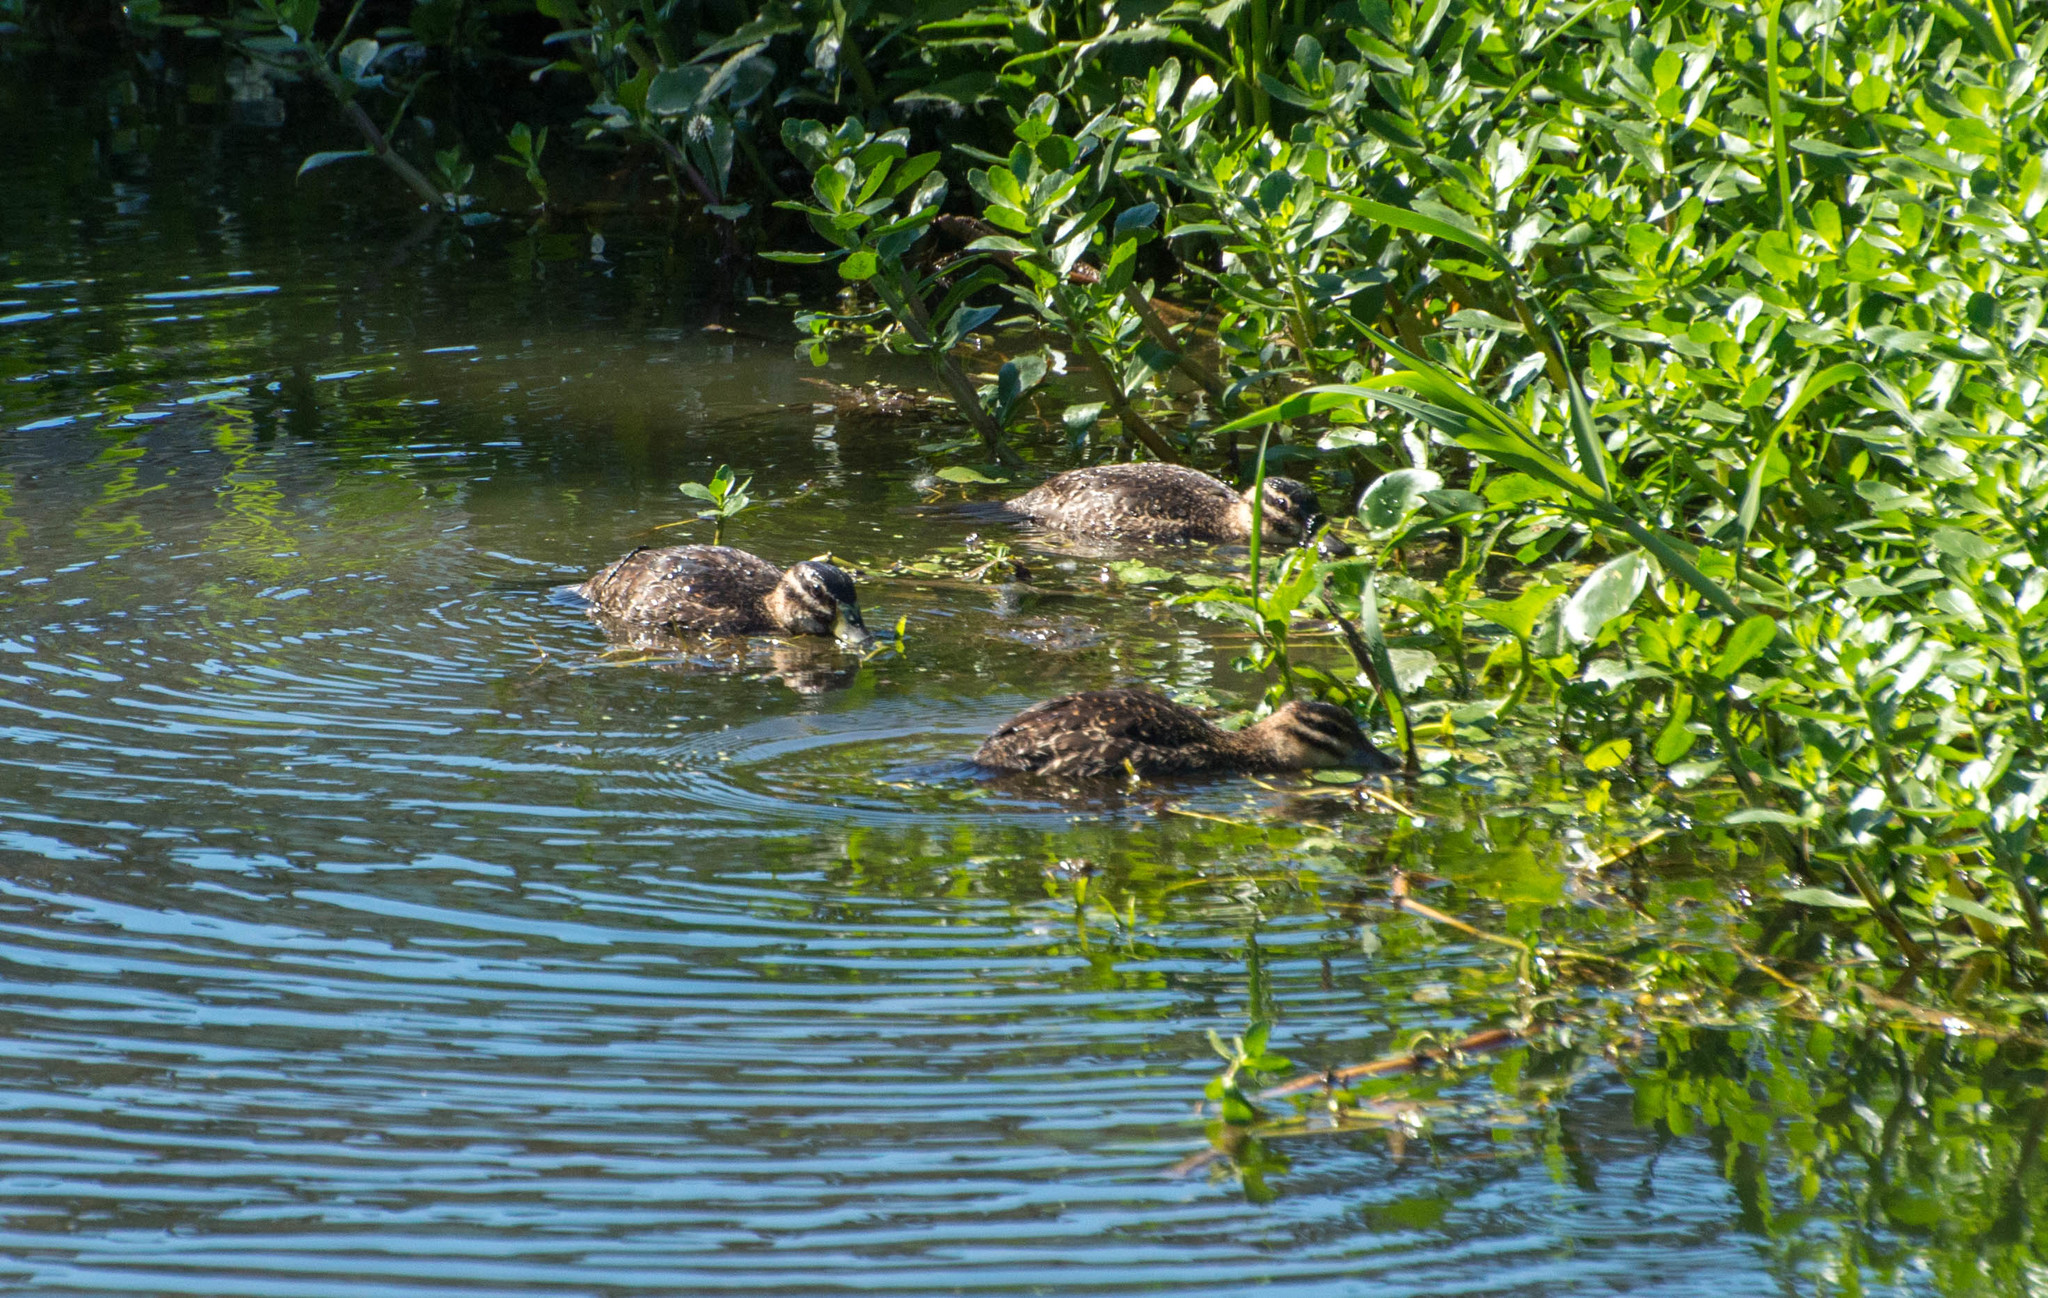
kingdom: Animalia
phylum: Chordata
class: Aves
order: Anseriformes
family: Anatidae
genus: Nomonyx
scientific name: Nomonyx dominicus
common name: Masked duck
